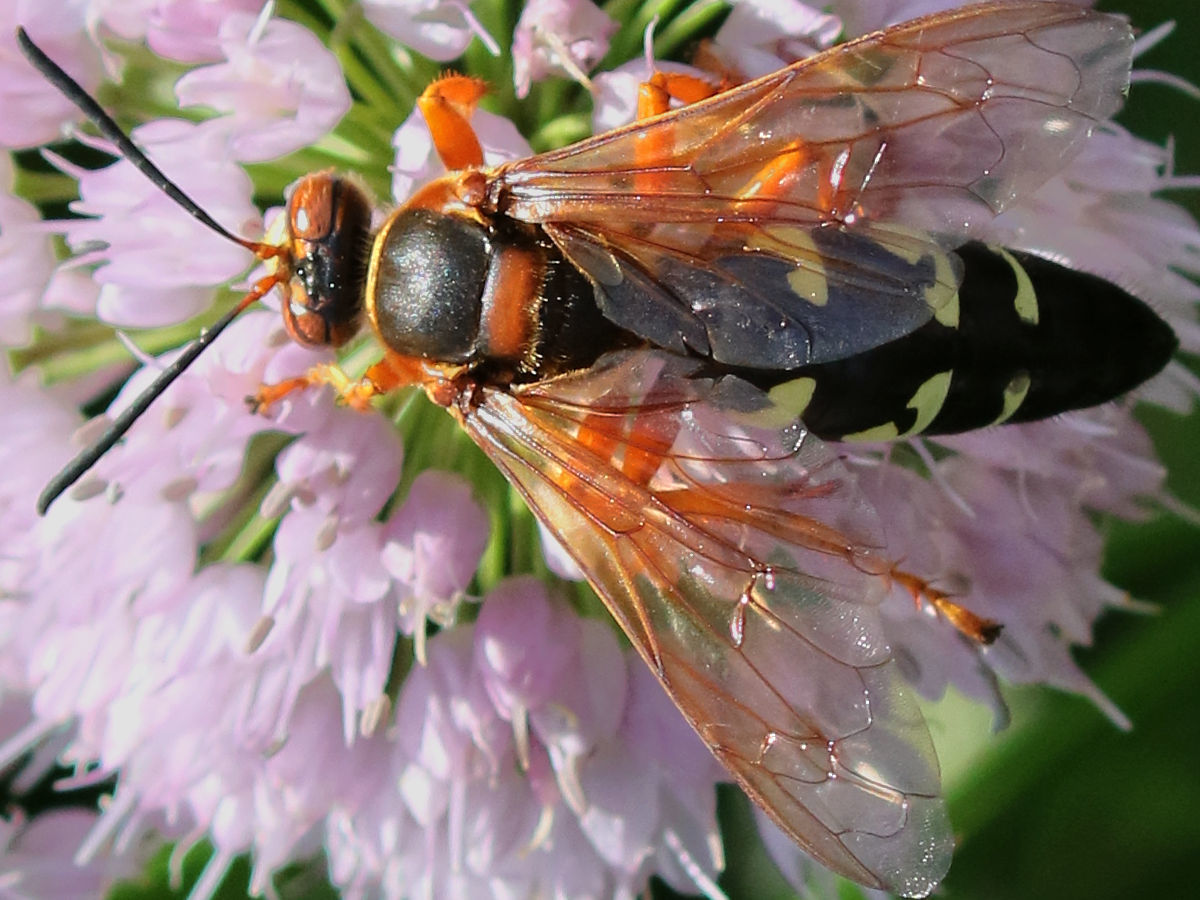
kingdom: Animalia
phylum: Arthropoda
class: Insecta
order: Hymenoptera
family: Crabronidae
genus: Sphecius
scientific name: Sphecius speciosus
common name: Cicada killer
